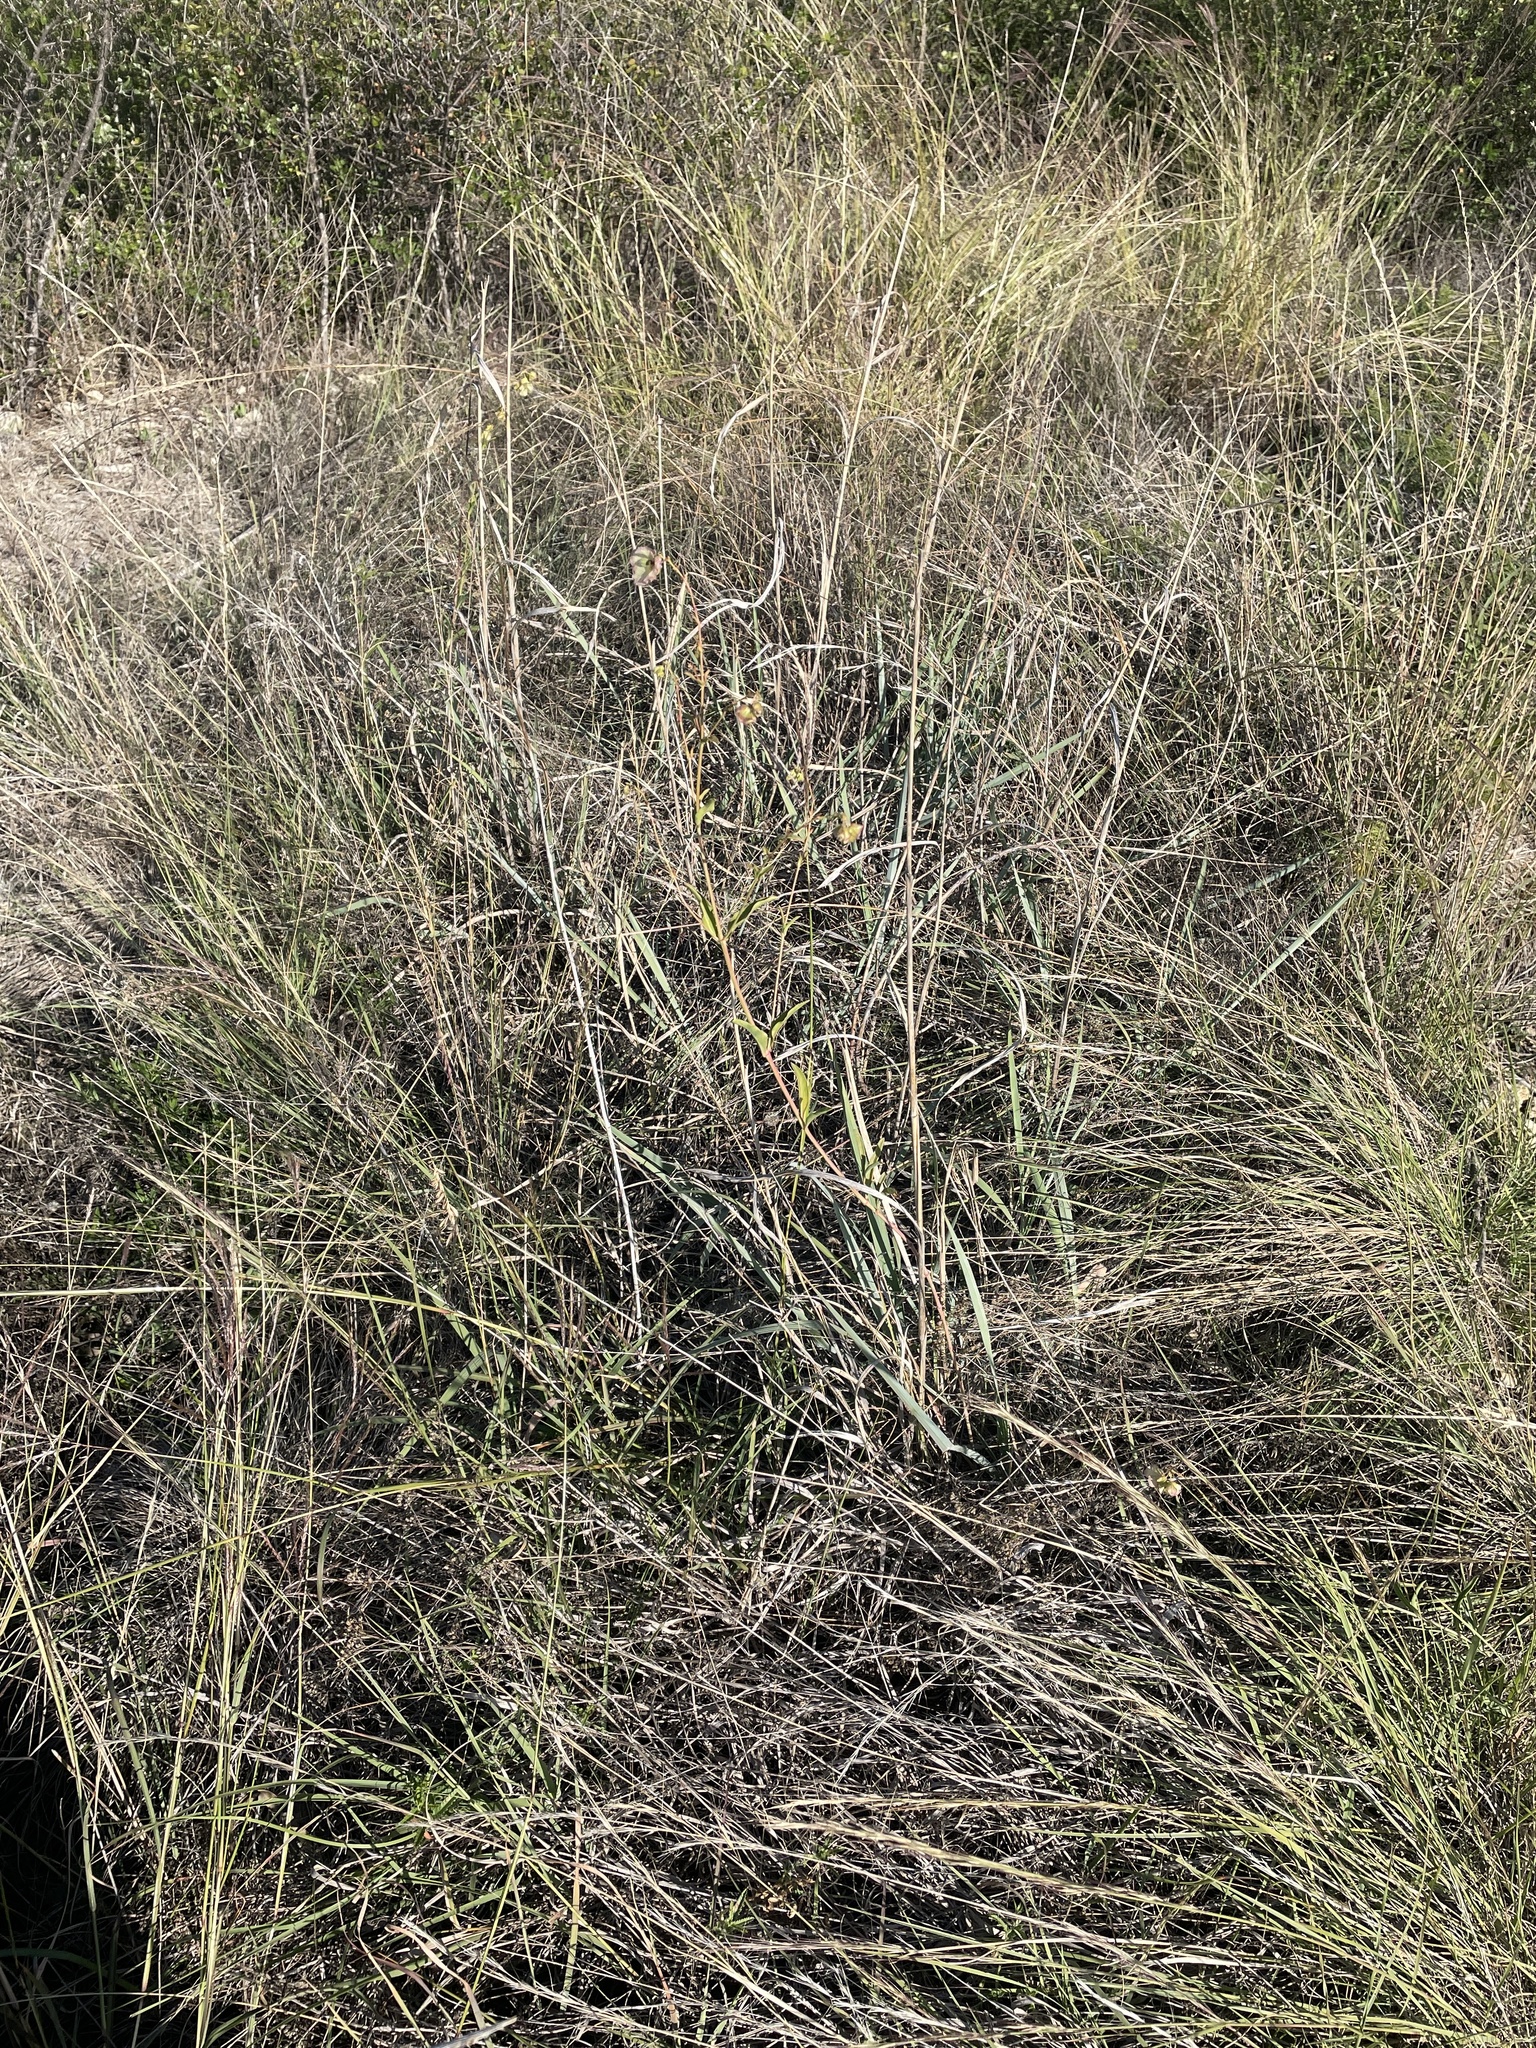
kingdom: Plantae
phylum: Tracheophyta
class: Magnoliopsida
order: Caryophyllales
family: Nyctaginaceae
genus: Mirabilis
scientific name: Mirabilis albida
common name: Hairy four-o'clock
